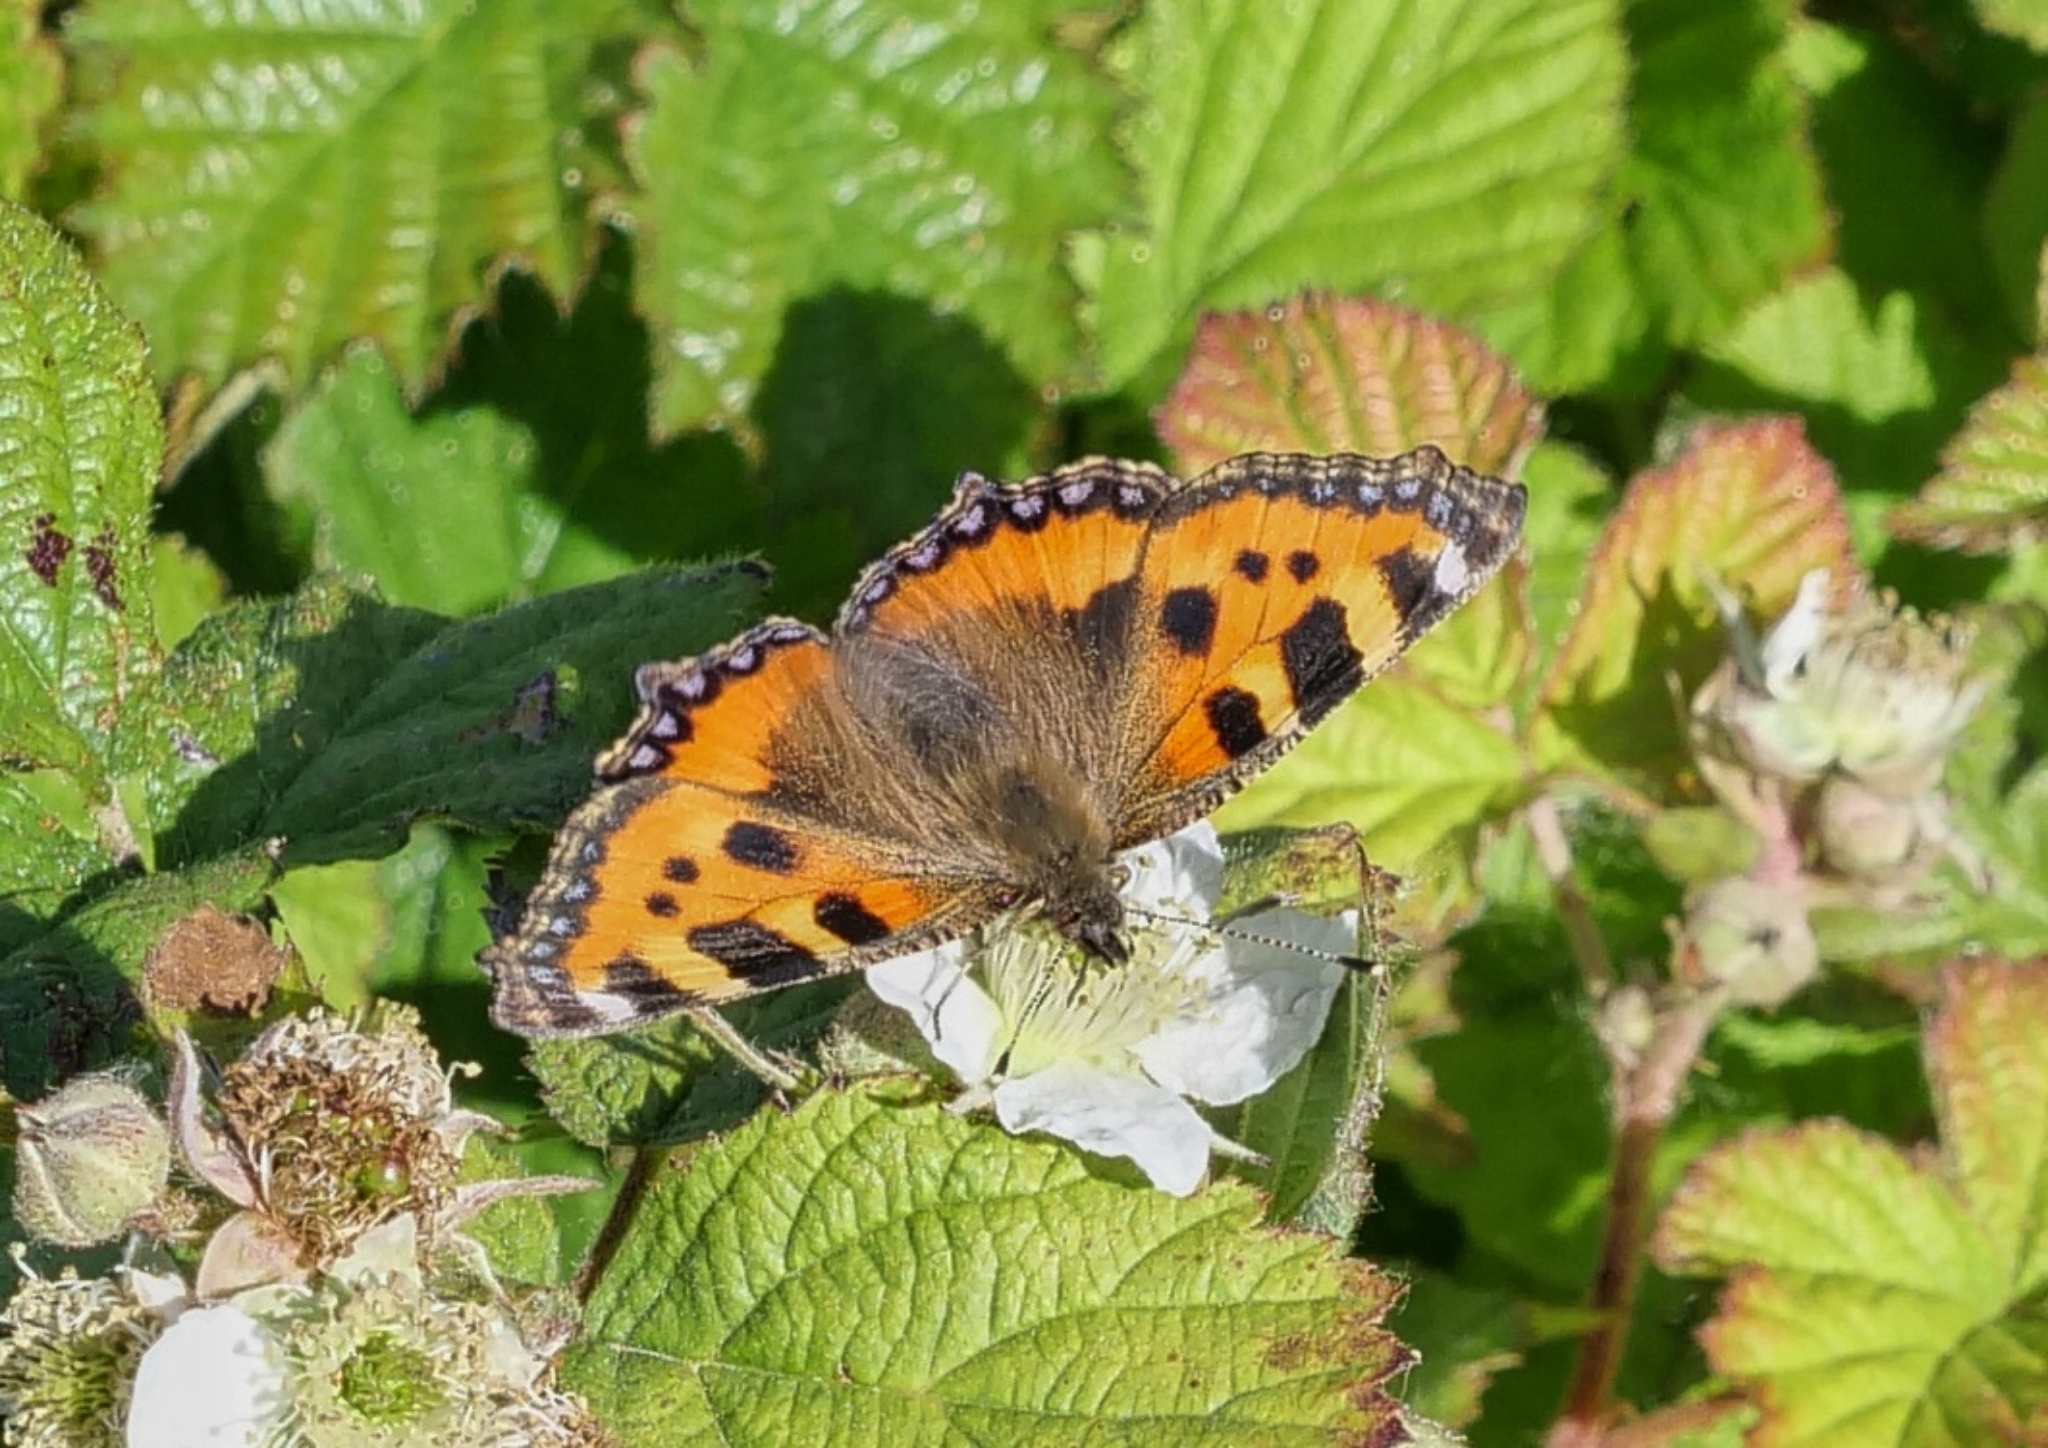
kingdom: Animalia
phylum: Arthropoda
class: Insecta
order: Lepidoptera
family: Nymphalidae
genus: Aglais
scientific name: Aglais urticae
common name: Small tortoiseshell
